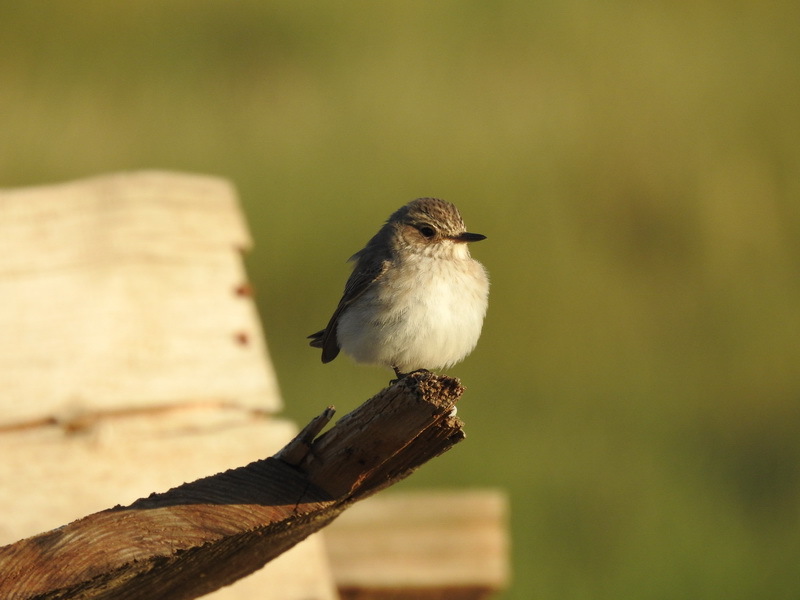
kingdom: Animalia
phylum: Chordata
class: Aves
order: Passeriformes
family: Muscicapidae
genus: Muscicapa
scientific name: Muscicapa striata
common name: Spotted flycatcher
